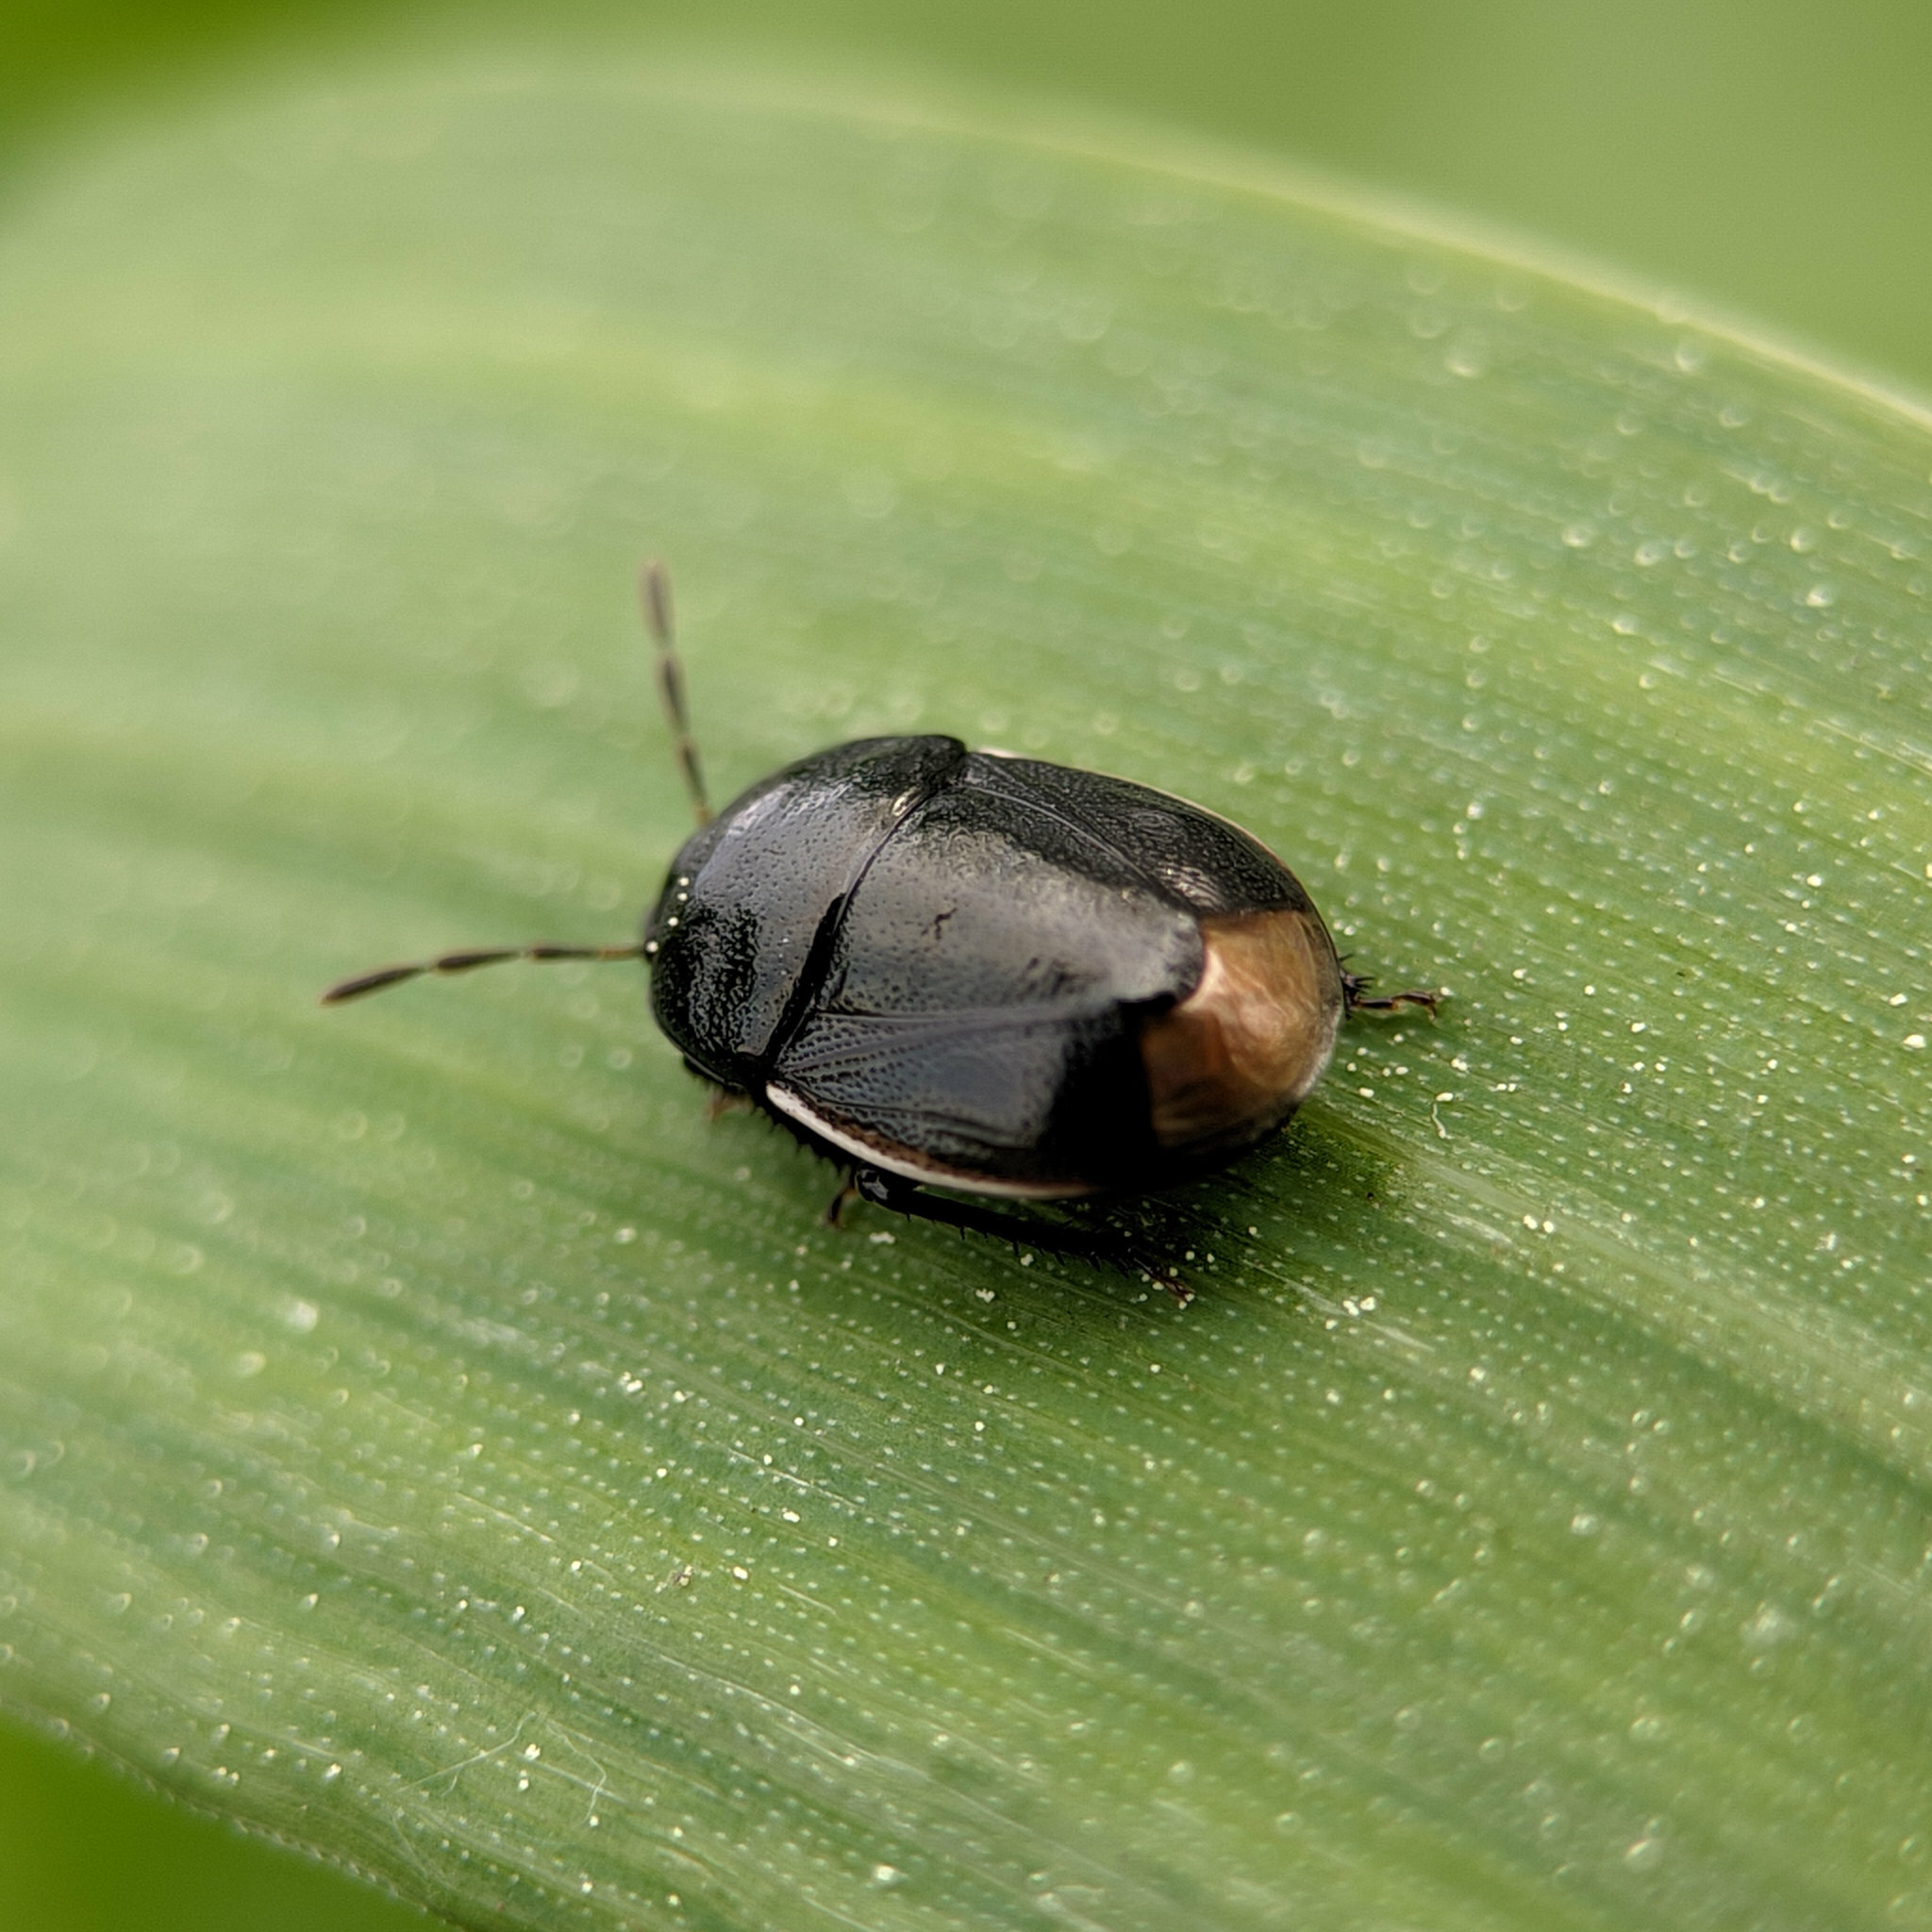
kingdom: Animalia
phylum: Arthropoda
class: Insecta
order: Hemiptera
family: Cydnidae
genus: Legnotus
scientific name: Legnotus limbosus
